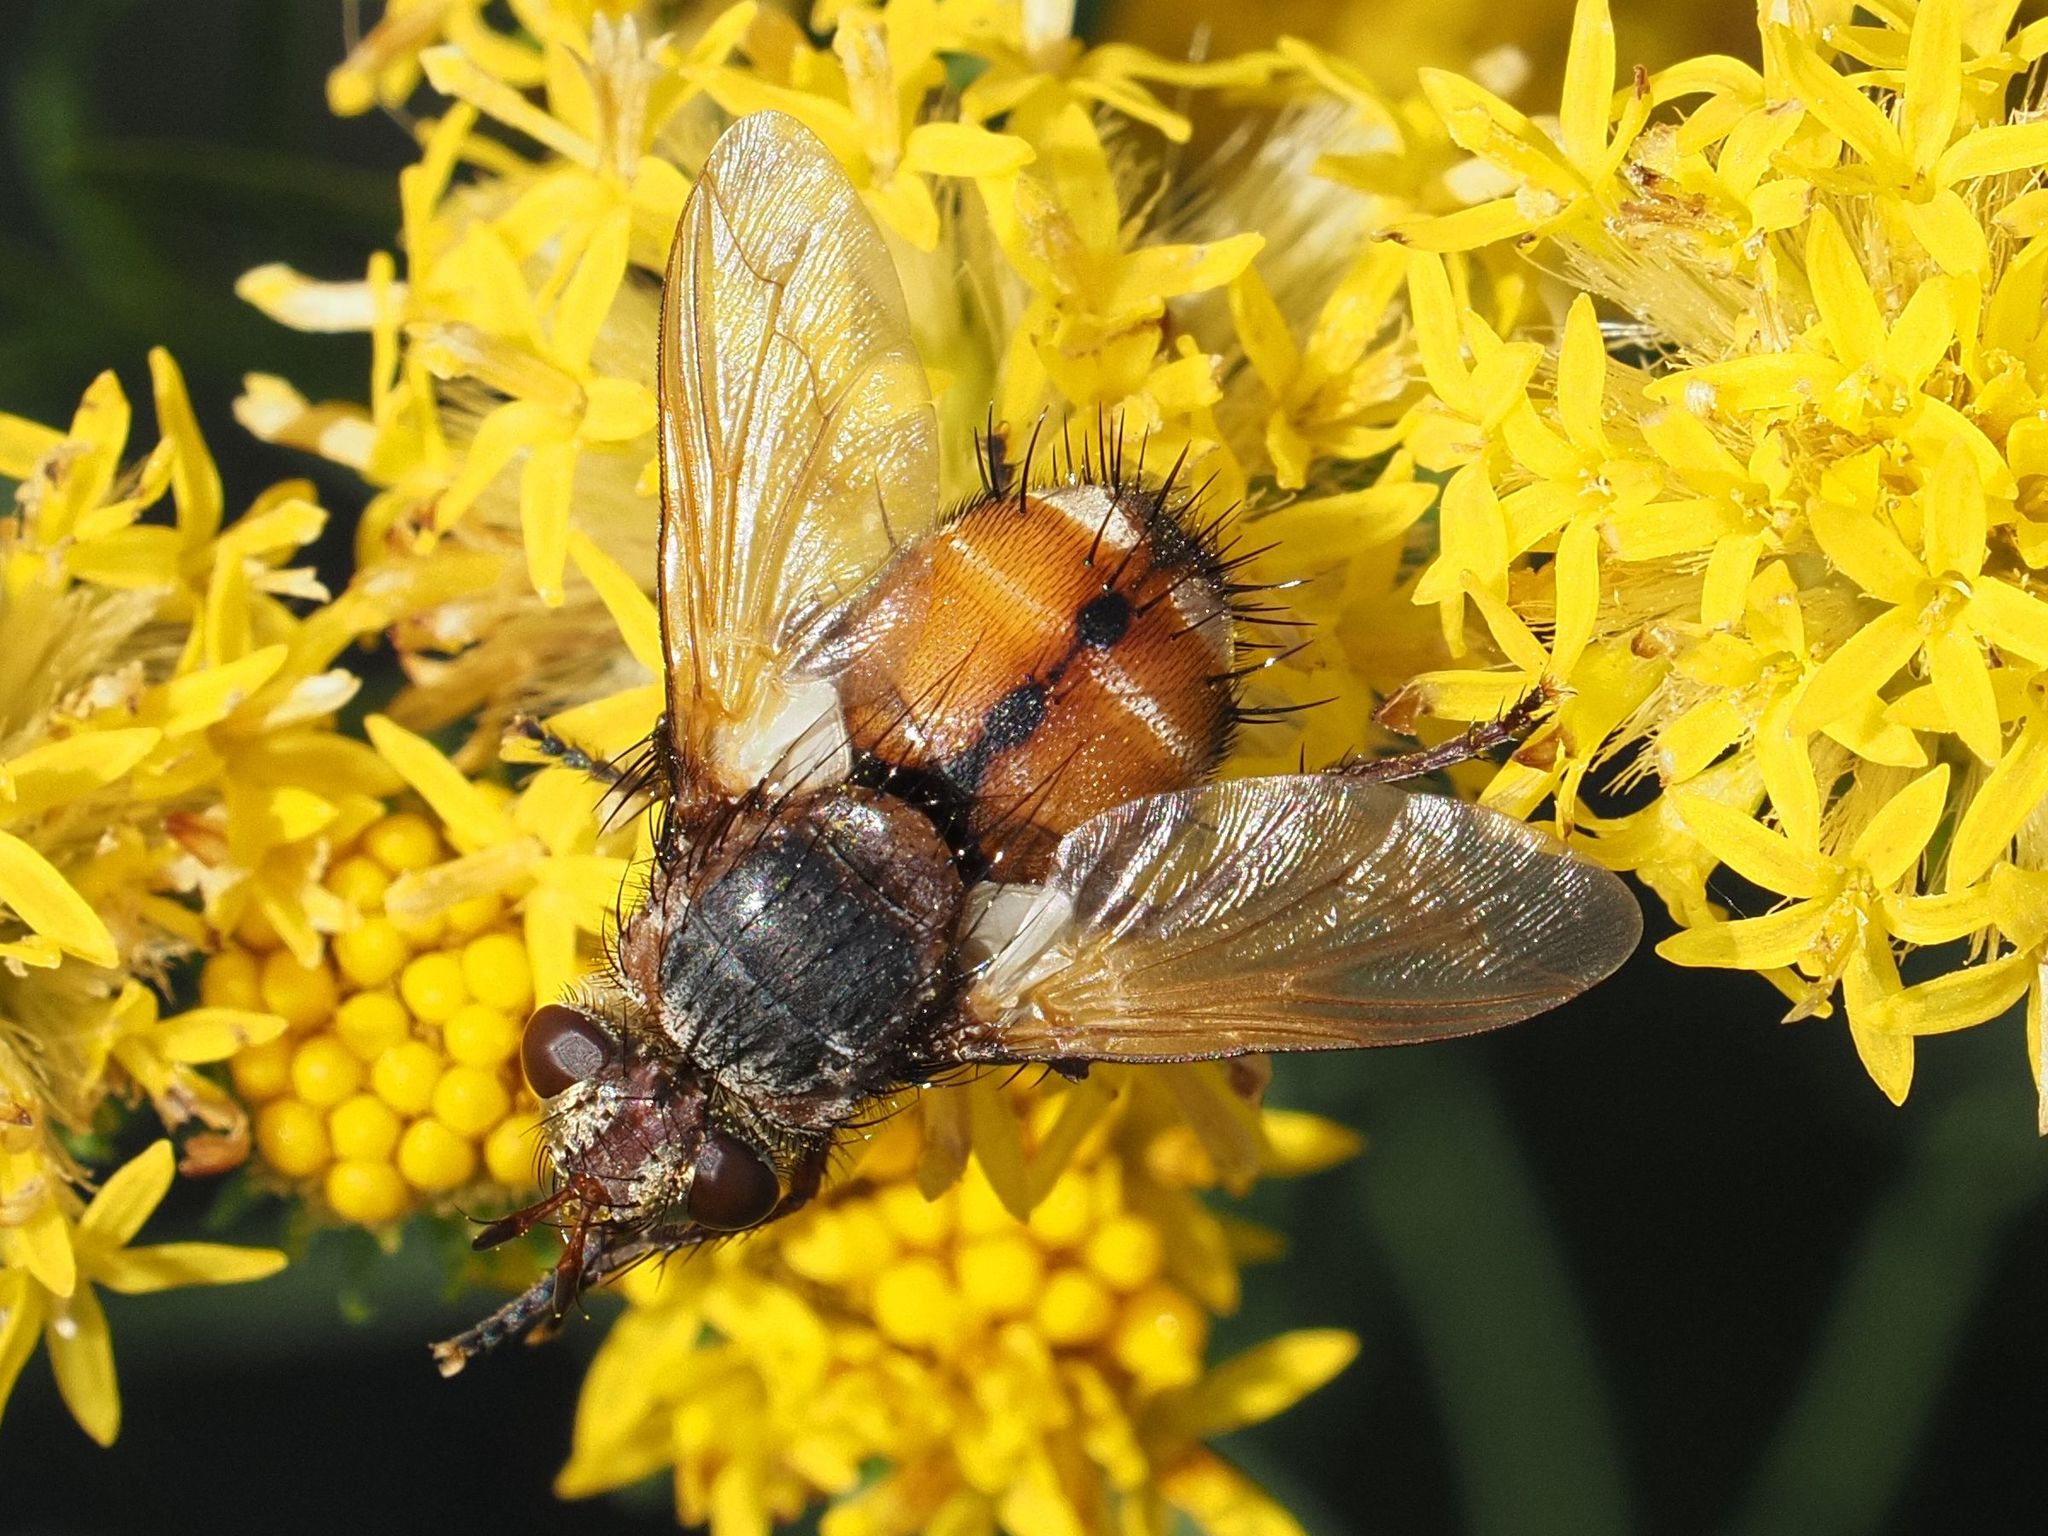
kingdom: Animalia
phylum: Arthropoda
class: Insecta
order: Diptera
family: Tachinidae
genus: Tachina
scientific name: Tachina fera
